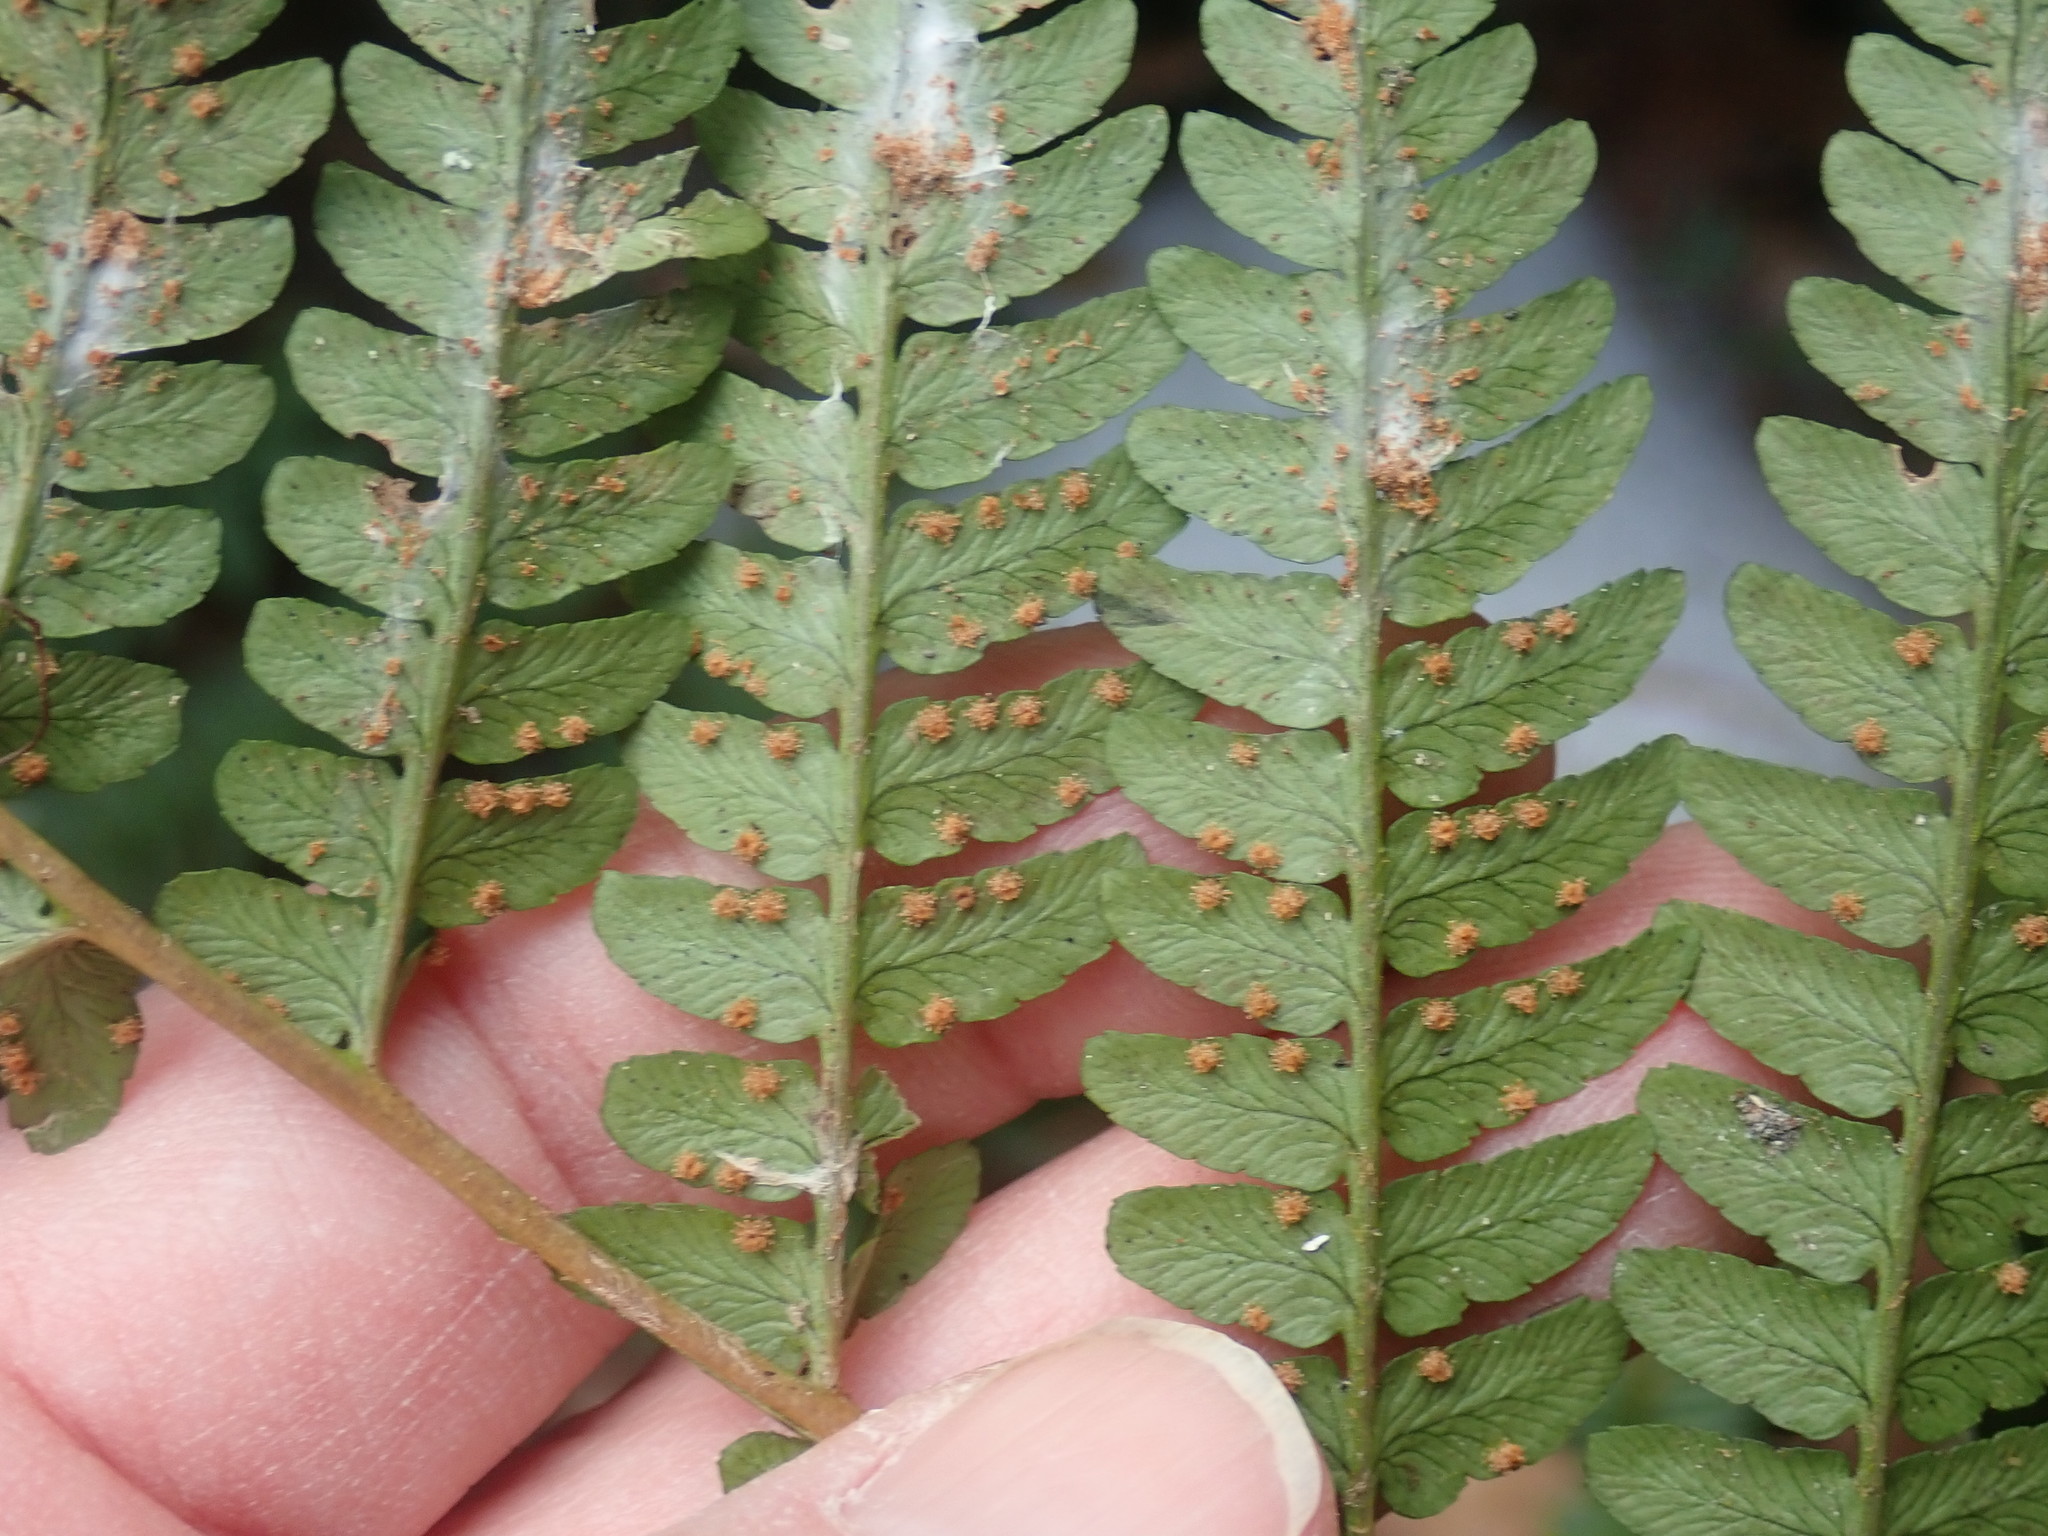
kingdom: Plantae
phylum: Tracheophyta
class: Polypodiopsida
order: Polypodiales
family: Dryopteridaceae
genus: Dryopteris
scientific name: Dryopteris marginalis
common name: Marginal wood fern
